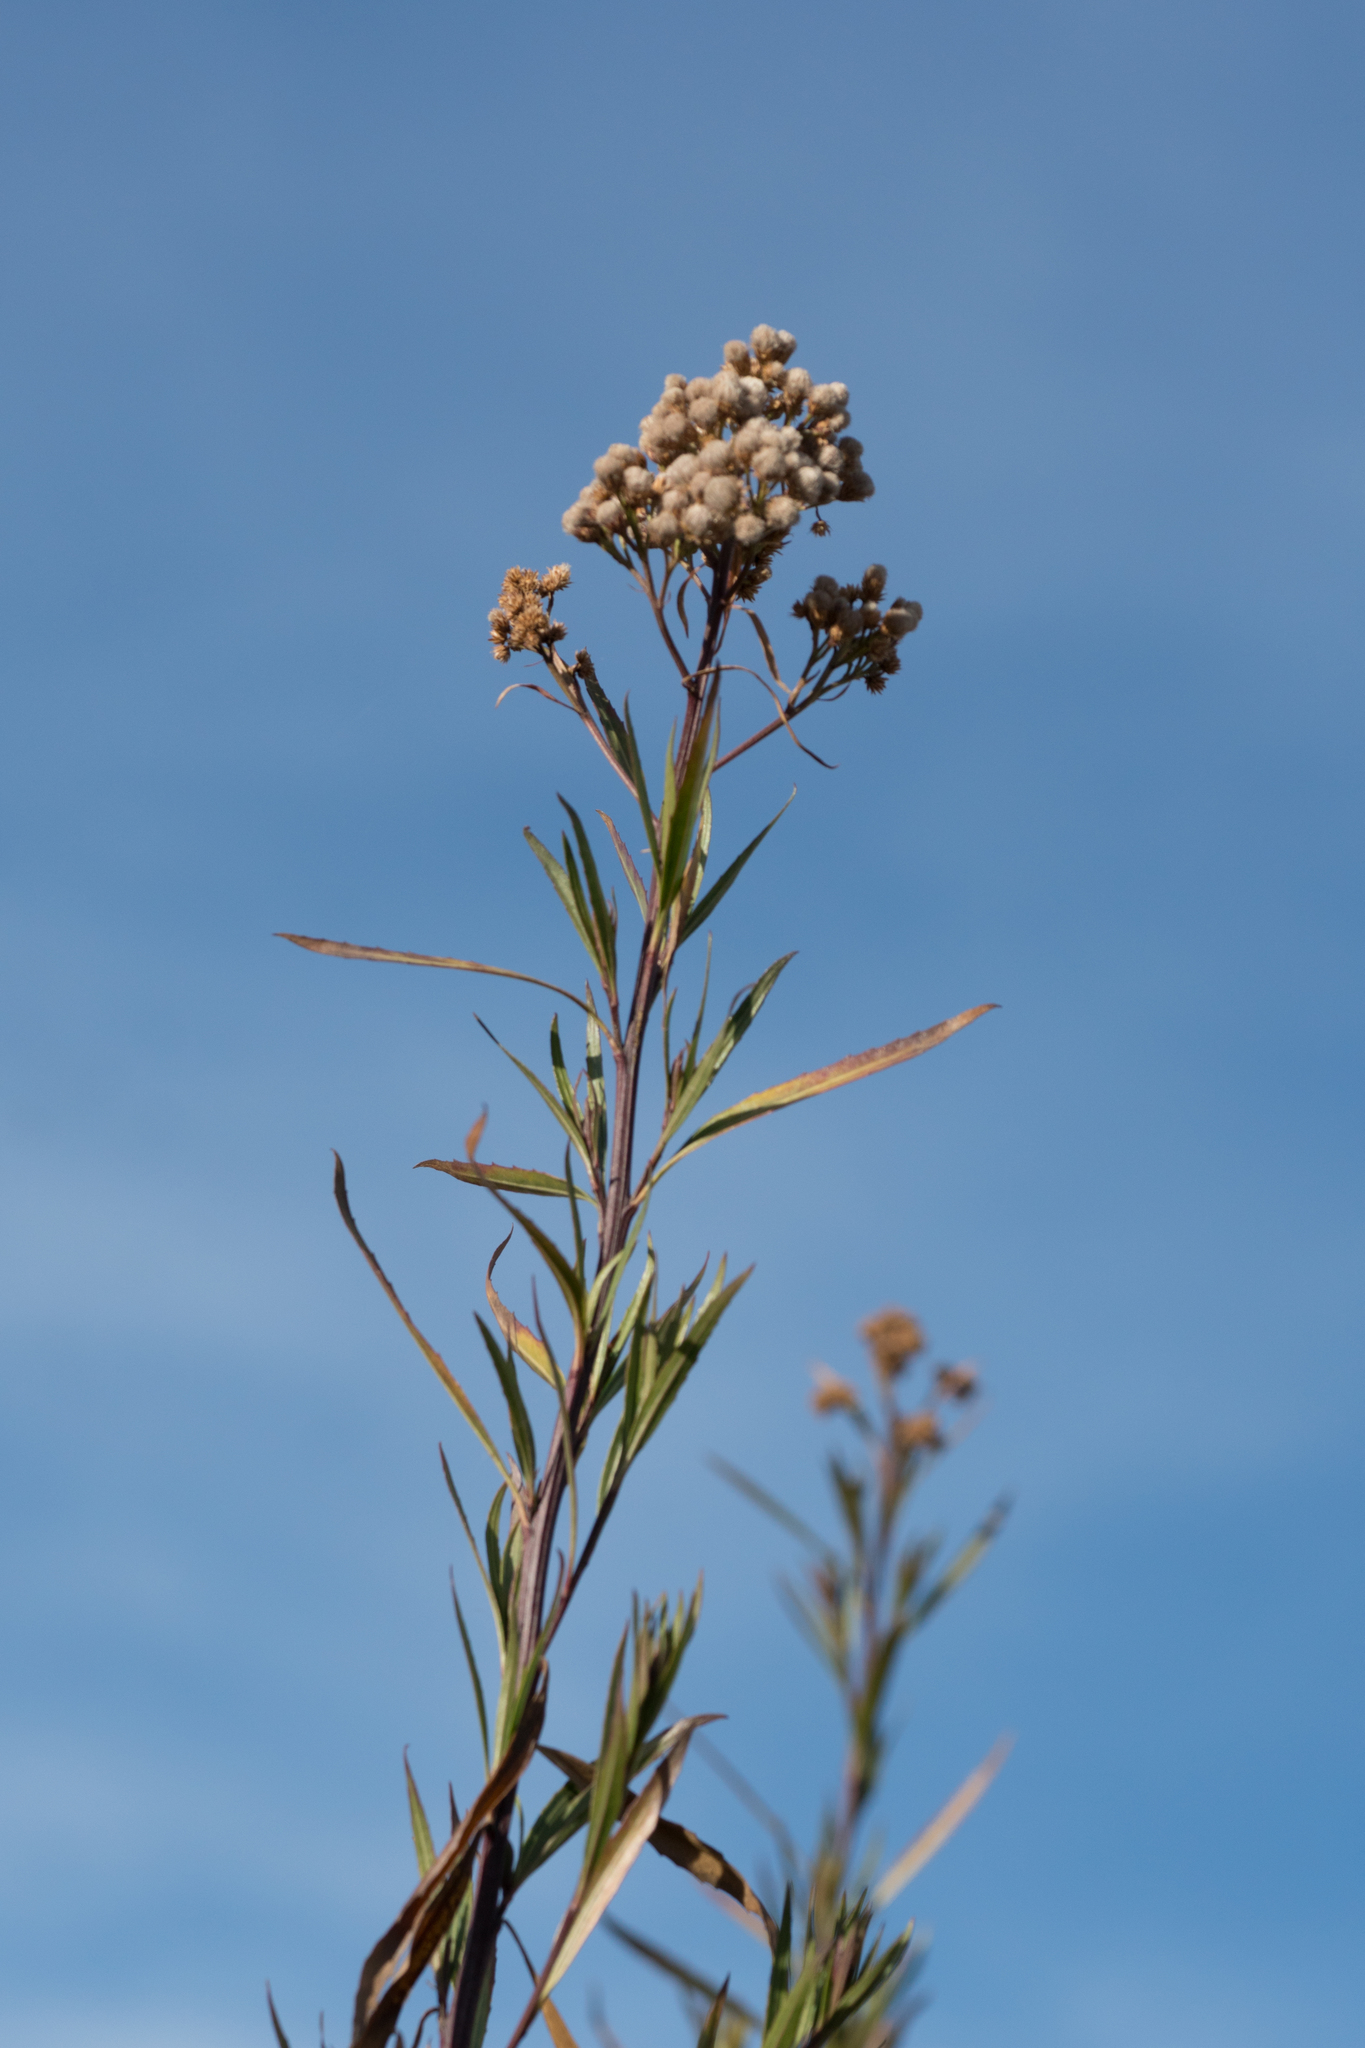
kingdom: Plantae
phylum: Tracheophyta
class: Magnoliopsida
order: Asterales
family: Asteraceae
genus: Baccharis
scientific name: Baccharis salicifolia
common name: Sticky baccharis
